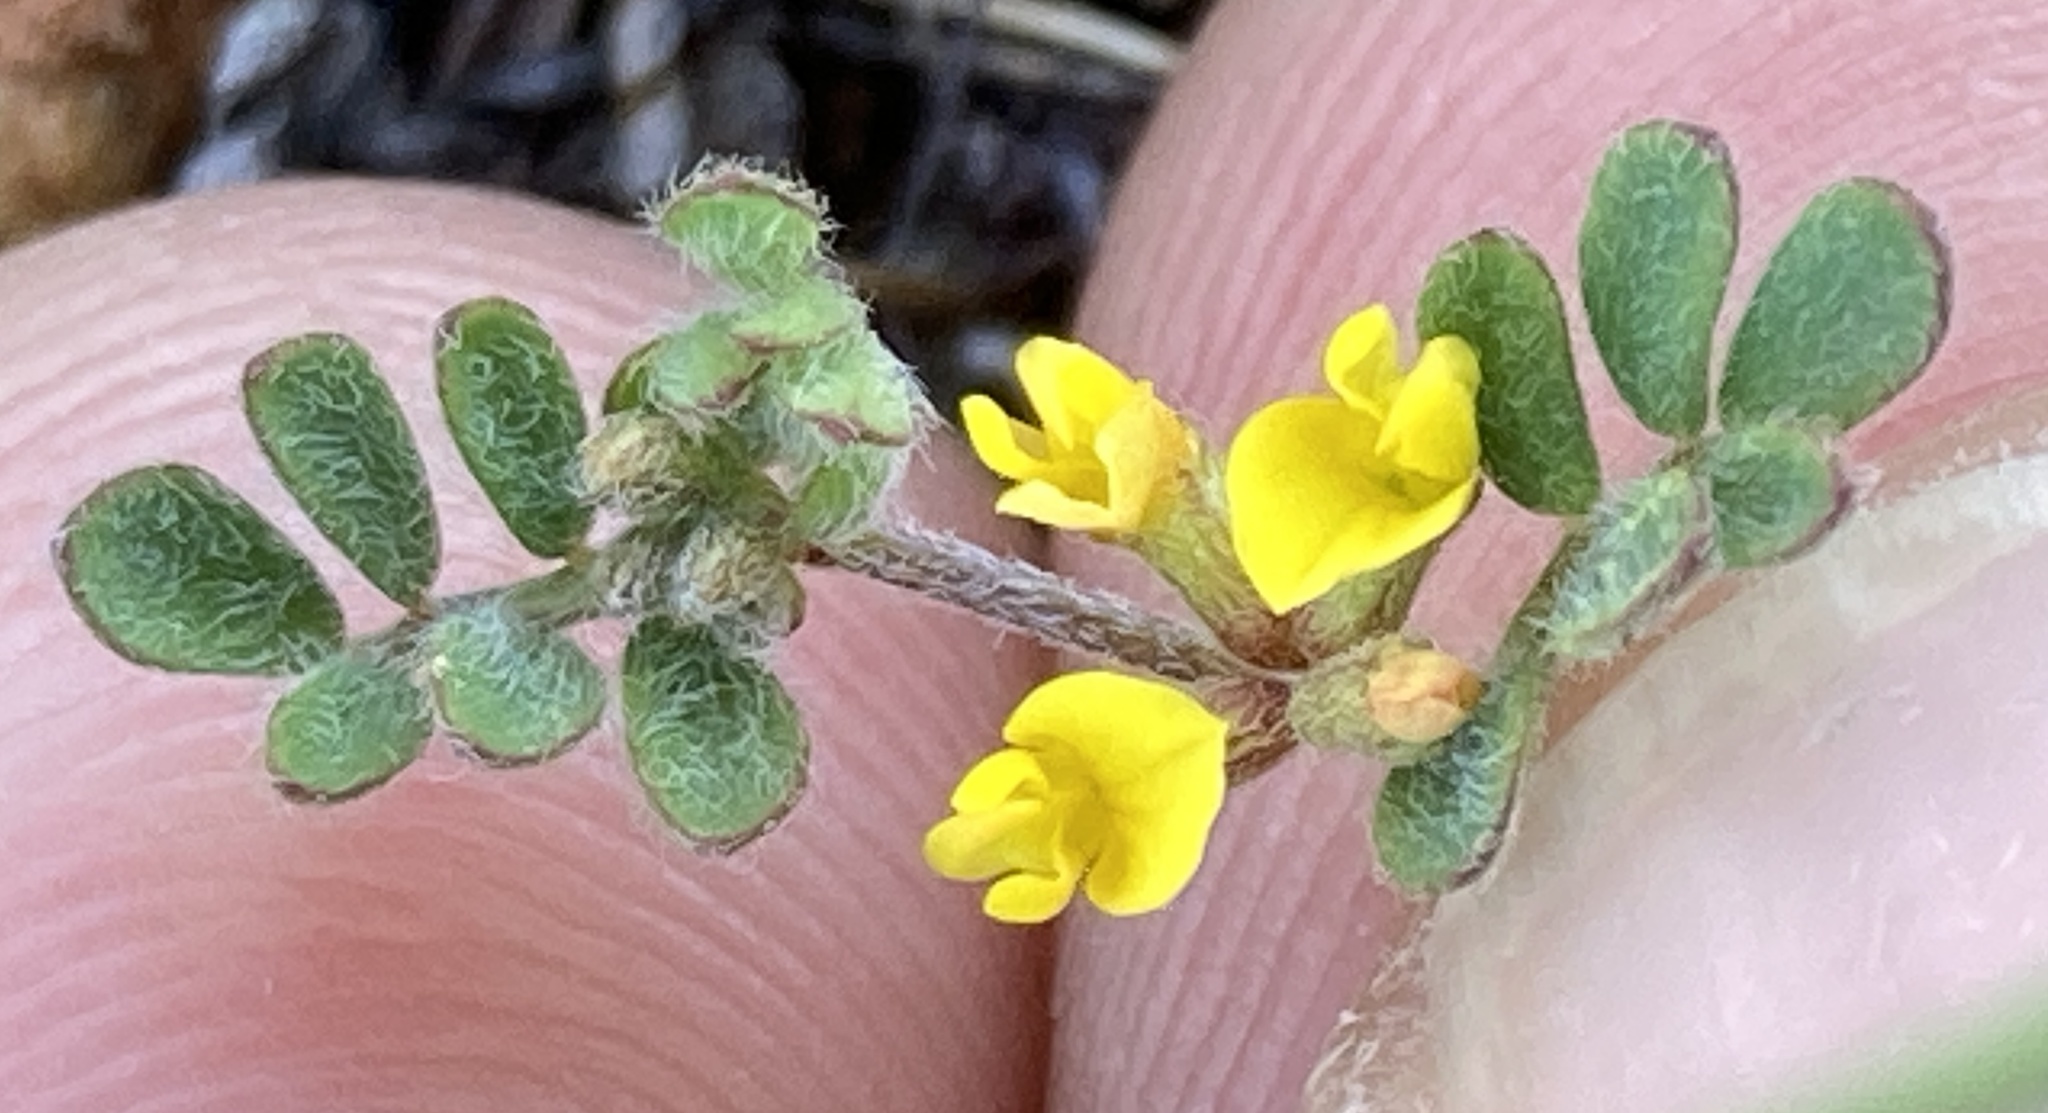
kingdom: Plantae
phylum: Tracheophyta
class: Magnoliopsida
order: Fabales
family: Fabaceae
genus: Acmispon
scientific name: Acmispon micranthus
